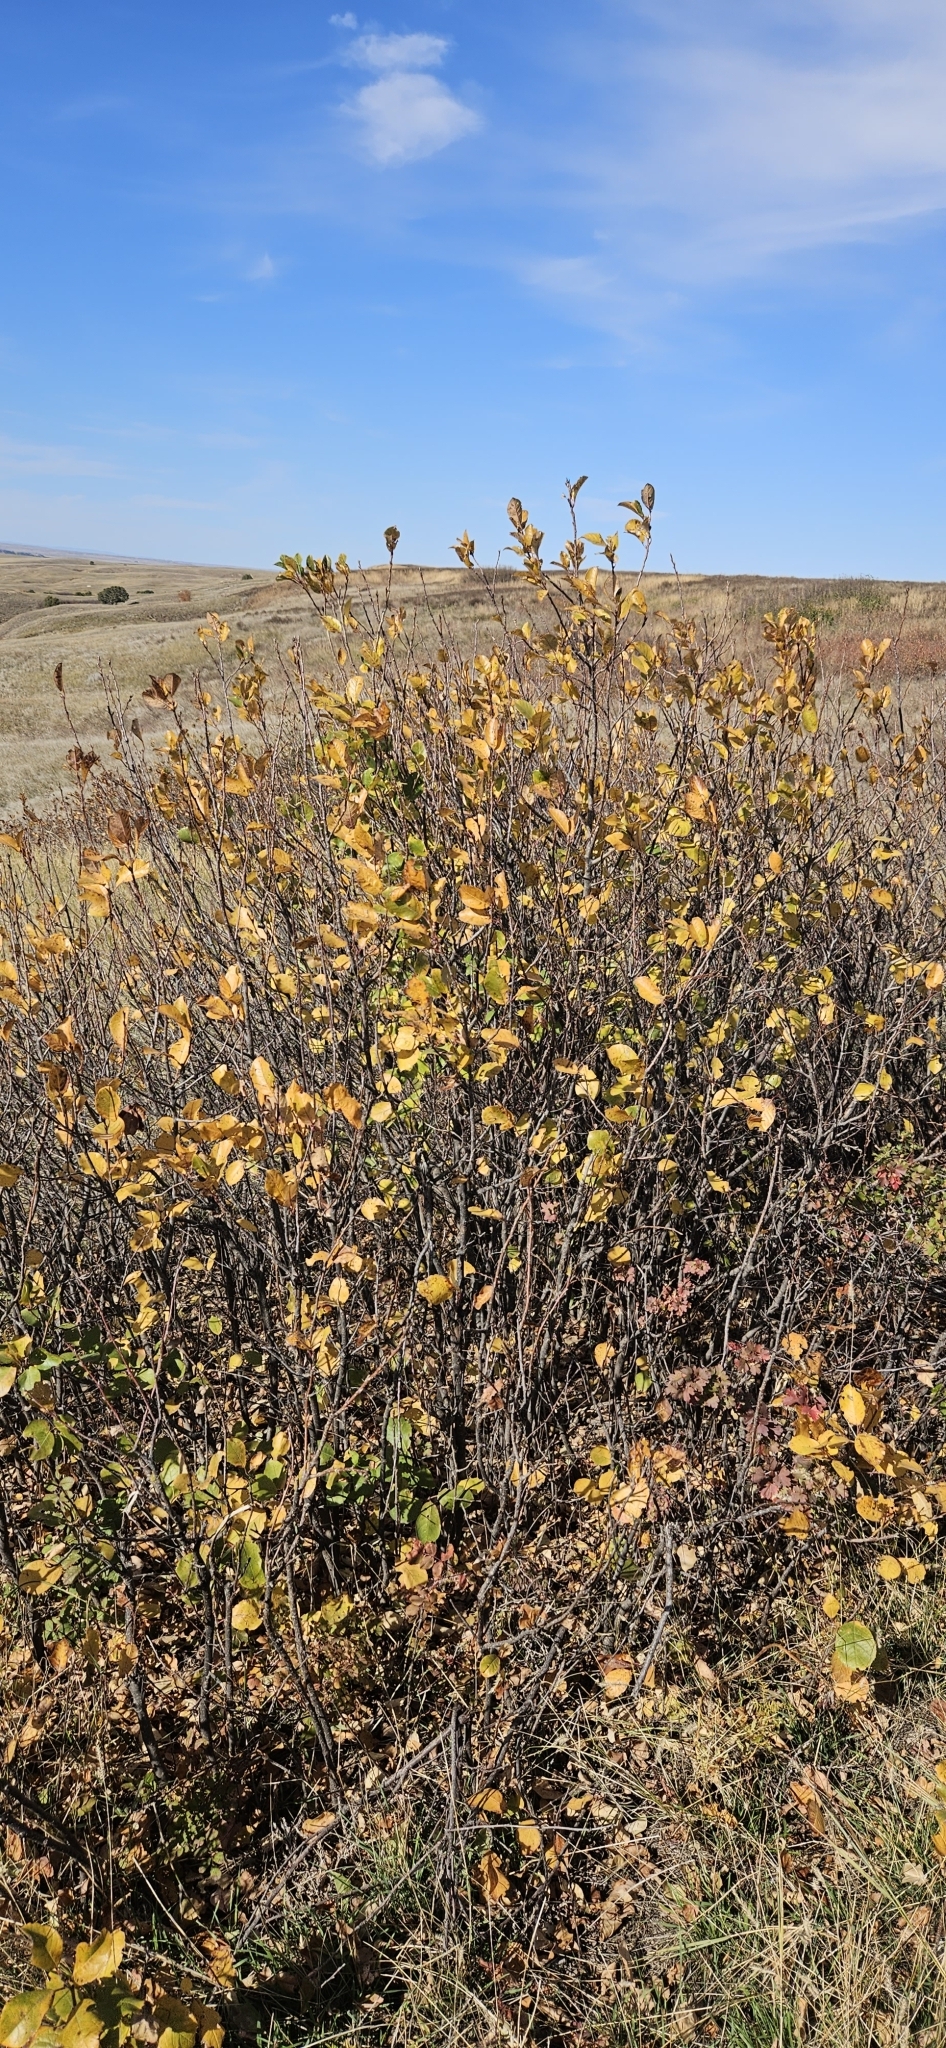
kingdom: Plantae
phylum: Tracheophyta
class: Magnoliopsida
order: Rosales
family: Rosaceae
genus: Prunus
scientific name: Prunus americana
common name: American plum
